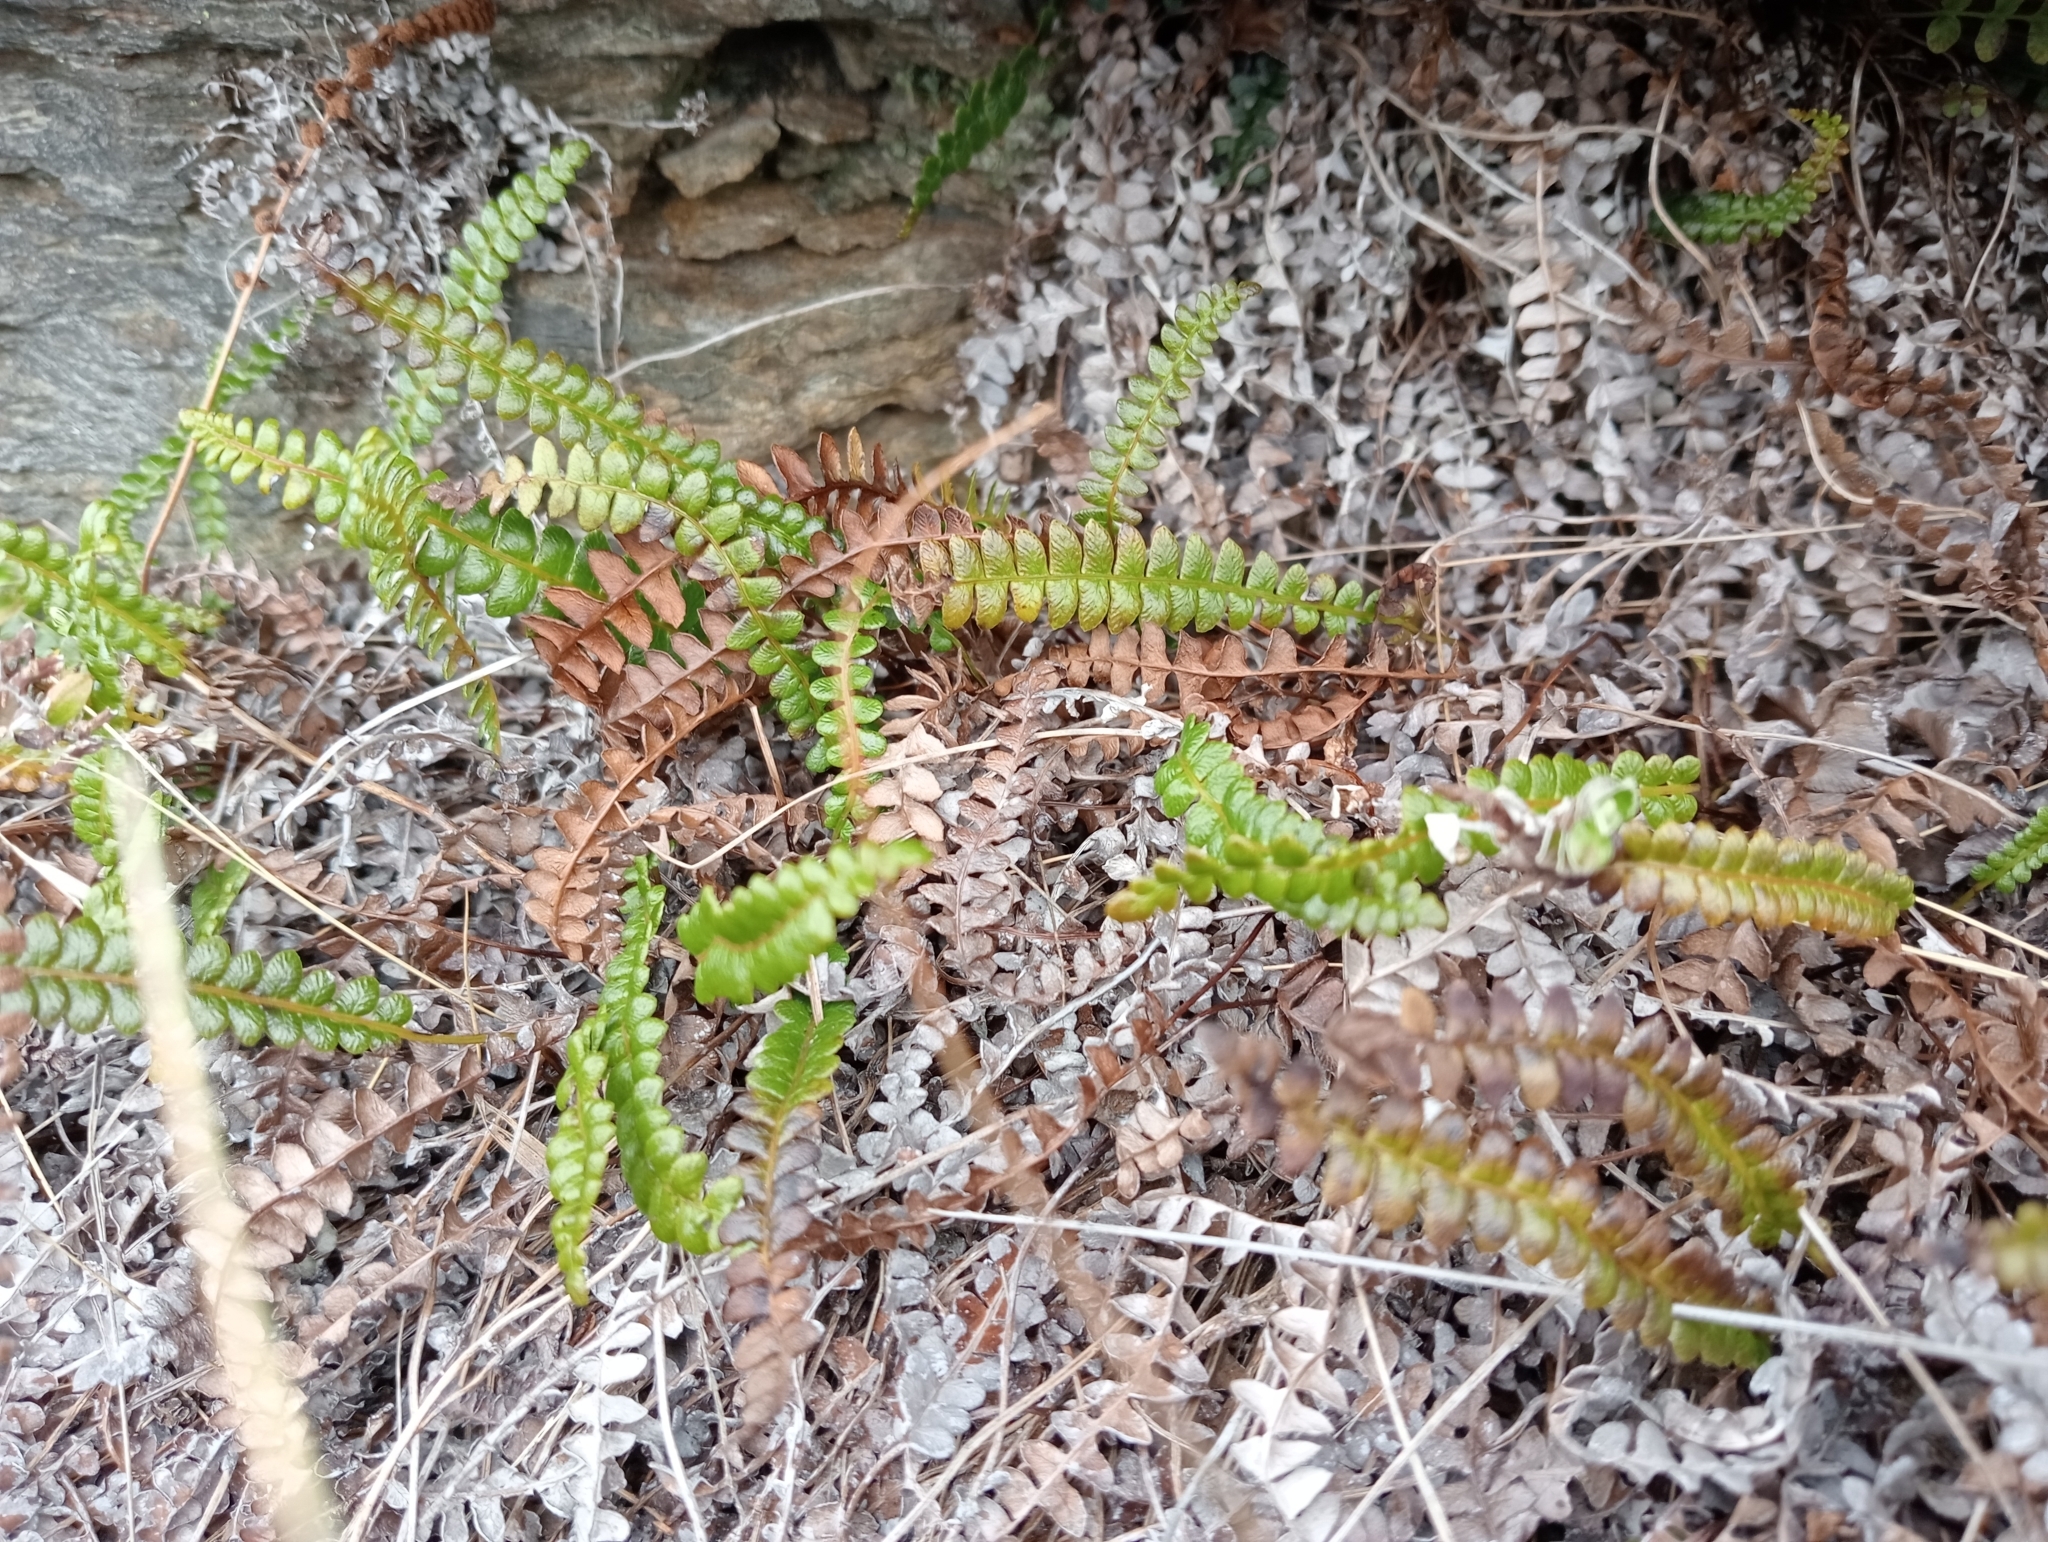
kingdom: Plantae
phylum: Tracheophyta
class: Polypodiopsida
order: Polypodiales
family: Blechnaceae
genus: Austroblechnum
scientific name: Austroblechnum penna-marina
